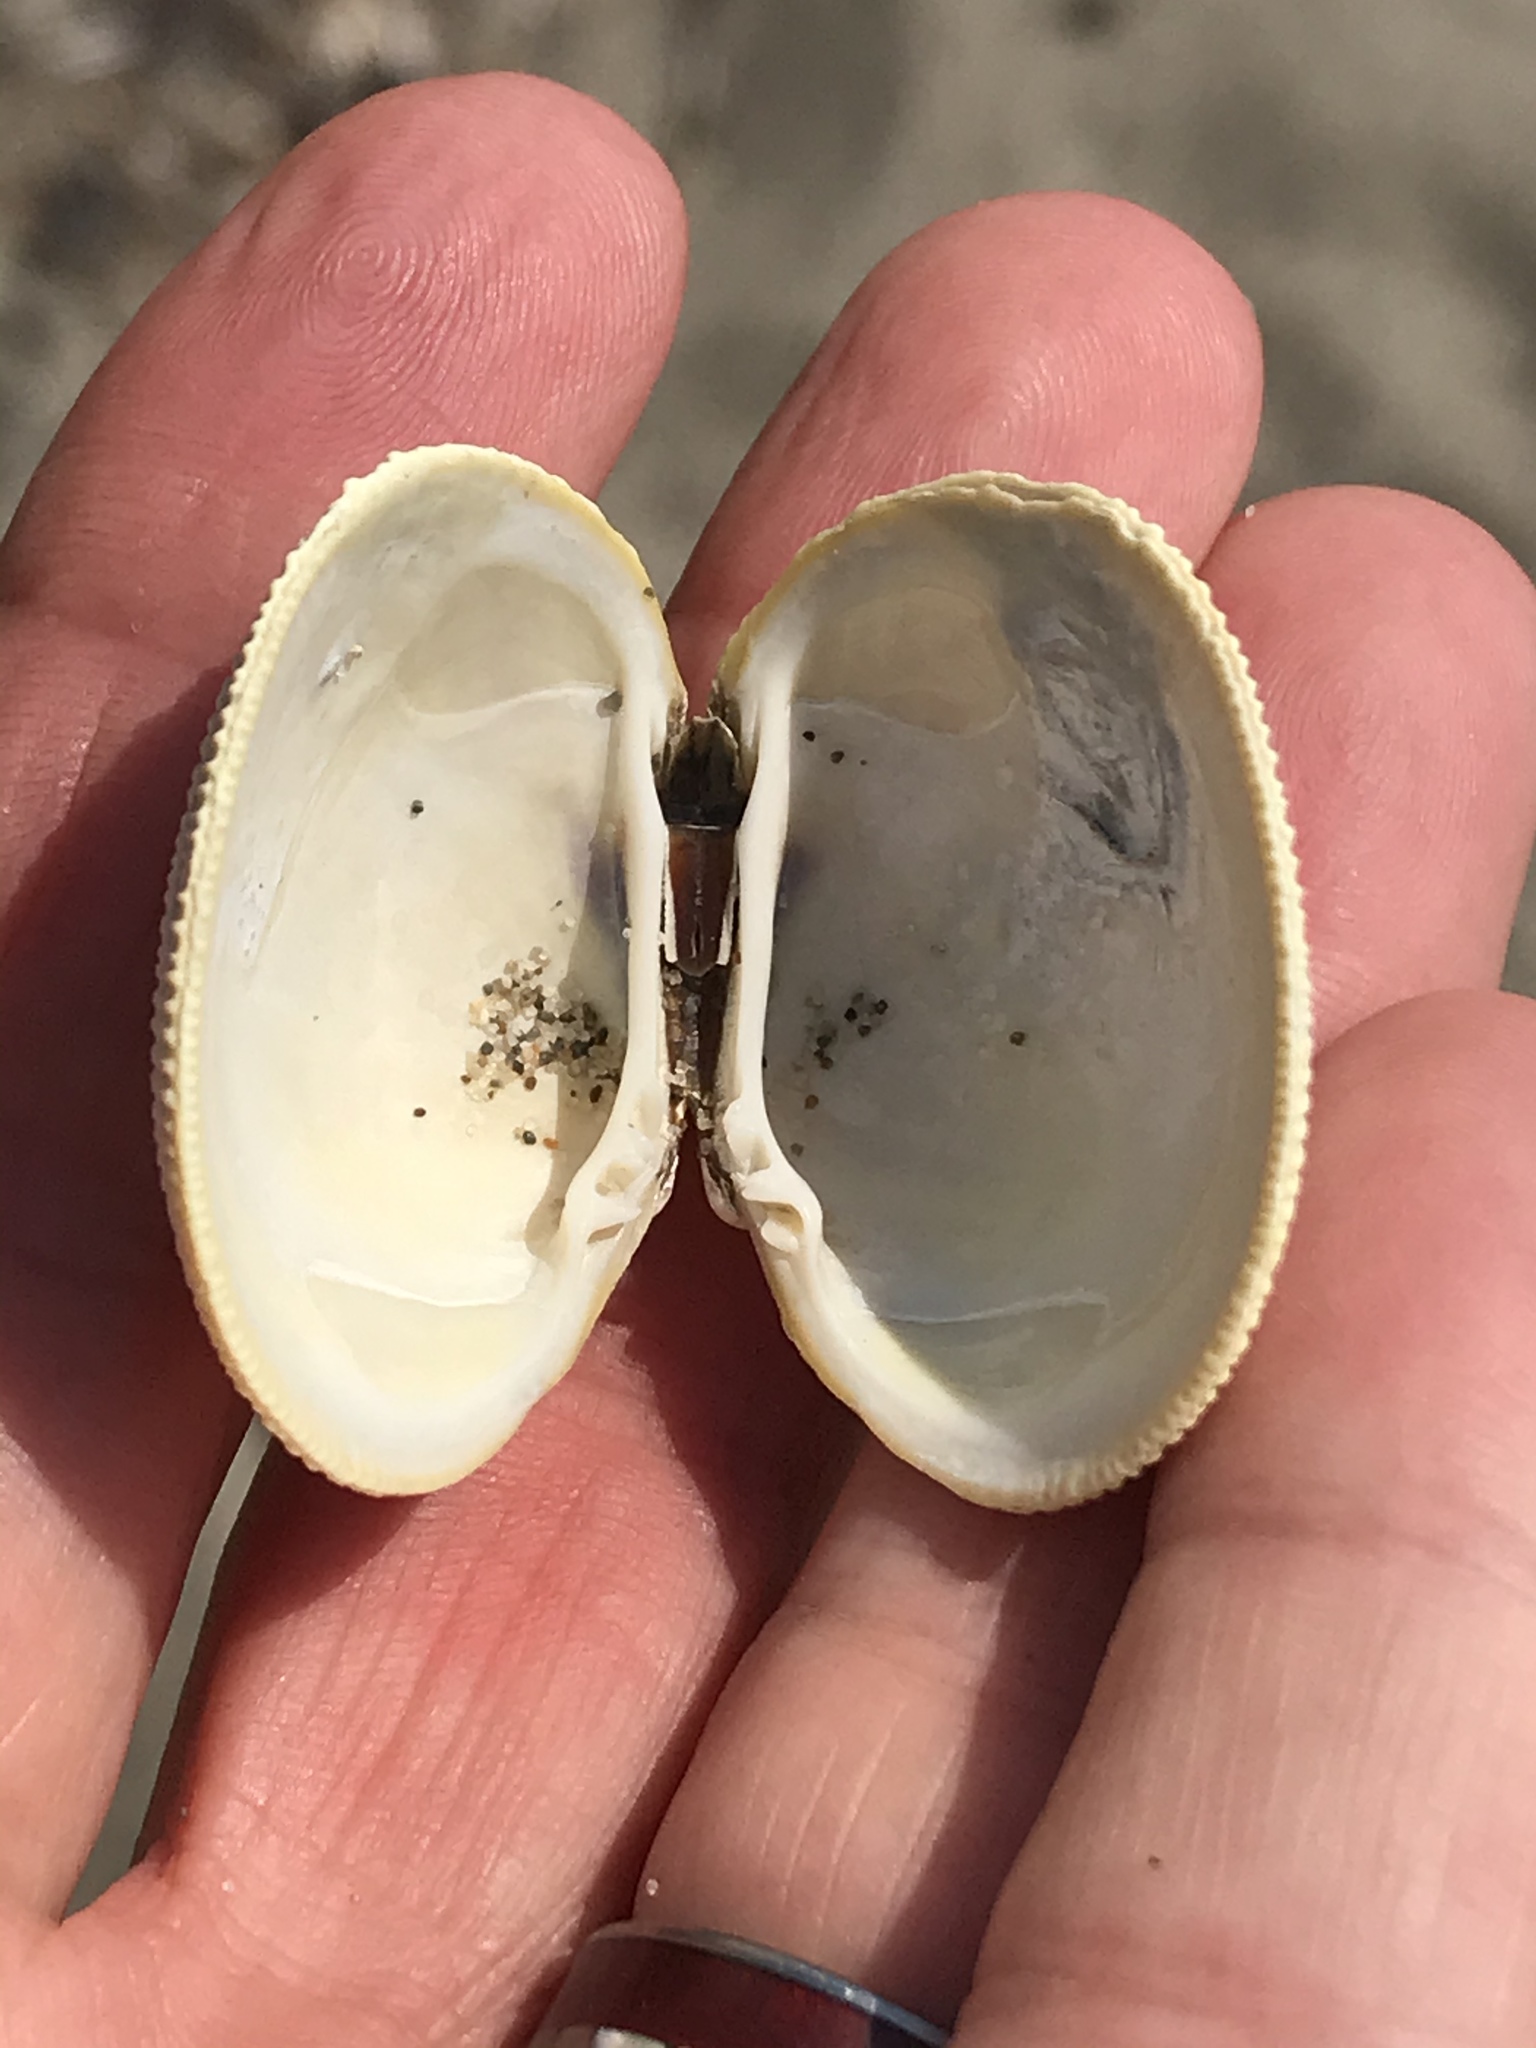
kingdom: Animalia
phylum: Mollusca
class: Bivalvia
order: Venerida
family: Veneridae
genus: Leukoma
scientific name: Leukoma staminea
